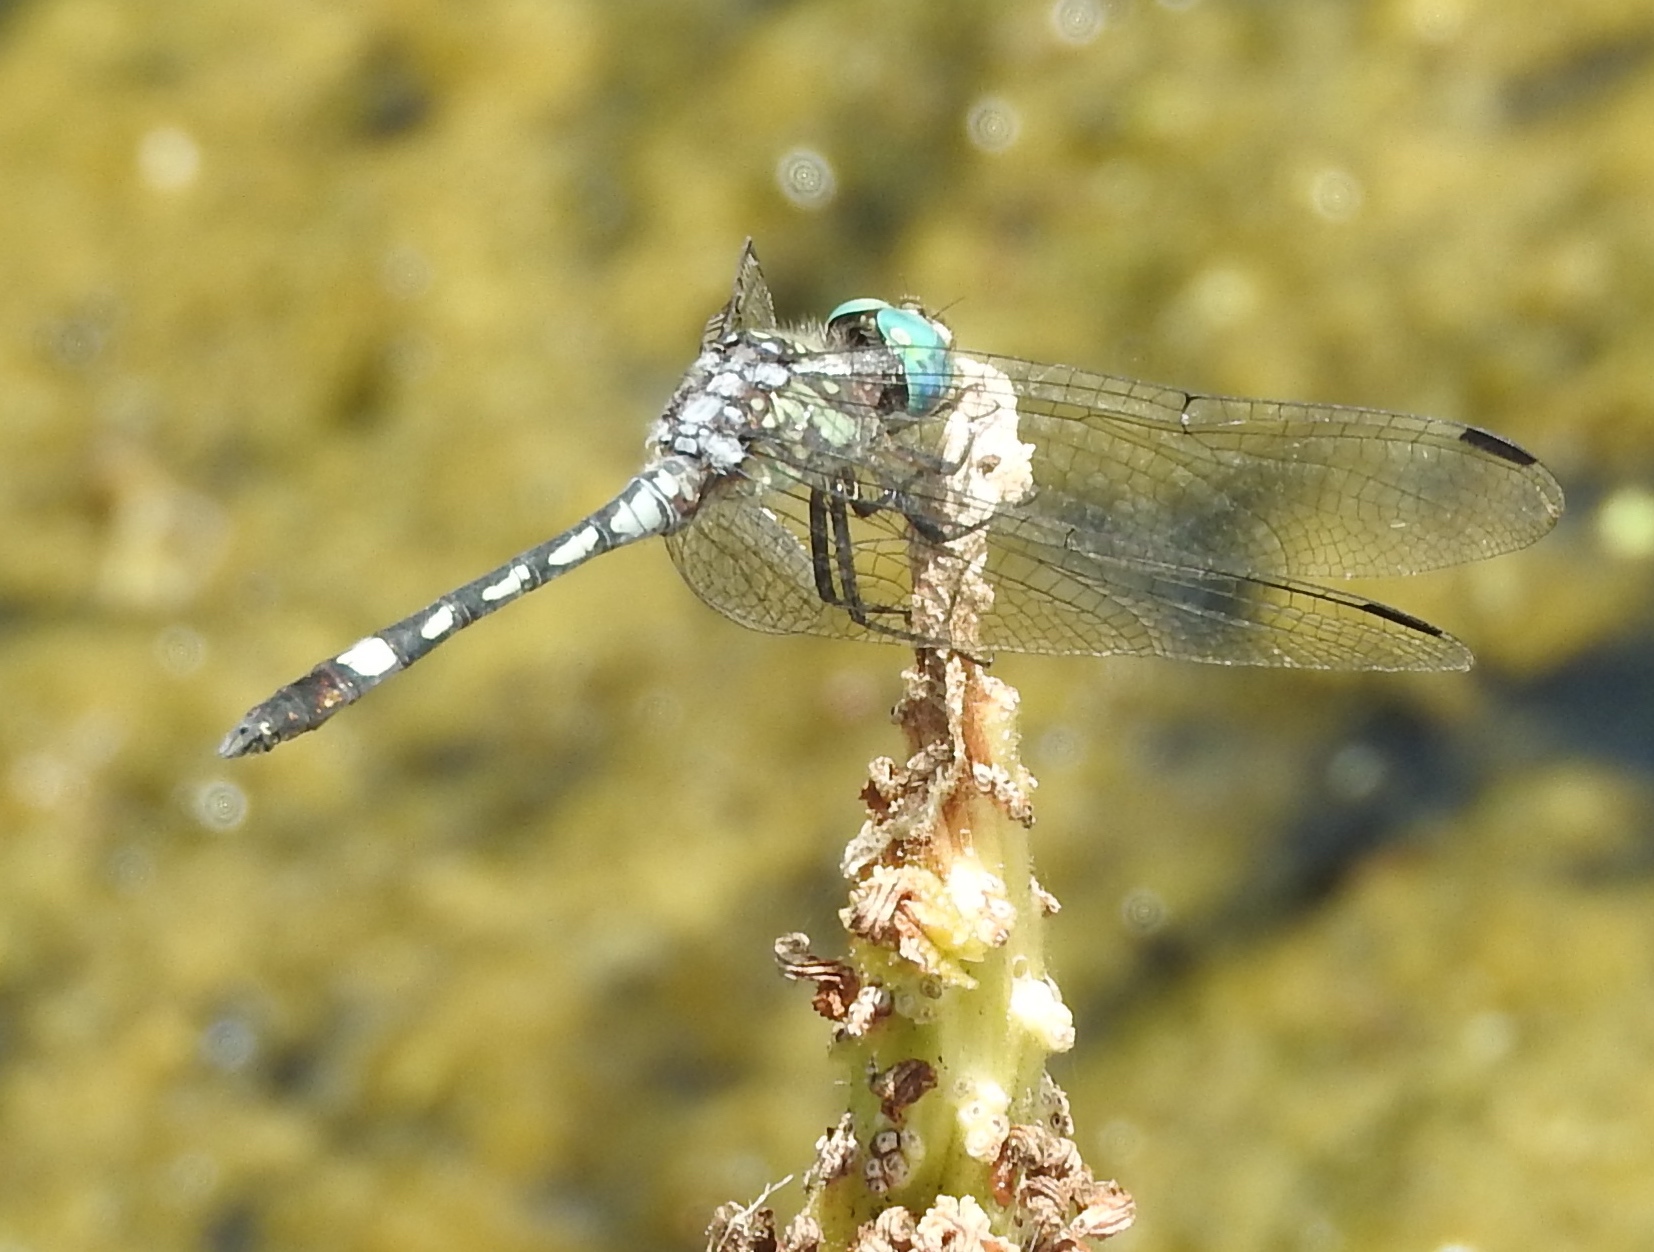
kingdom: Animalia
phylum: Arthropoda
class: Insecta
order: Odonata
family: Libellulidae
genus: Micrathyria
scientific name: Micrathyria hagenii
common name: Thornbush dasher
